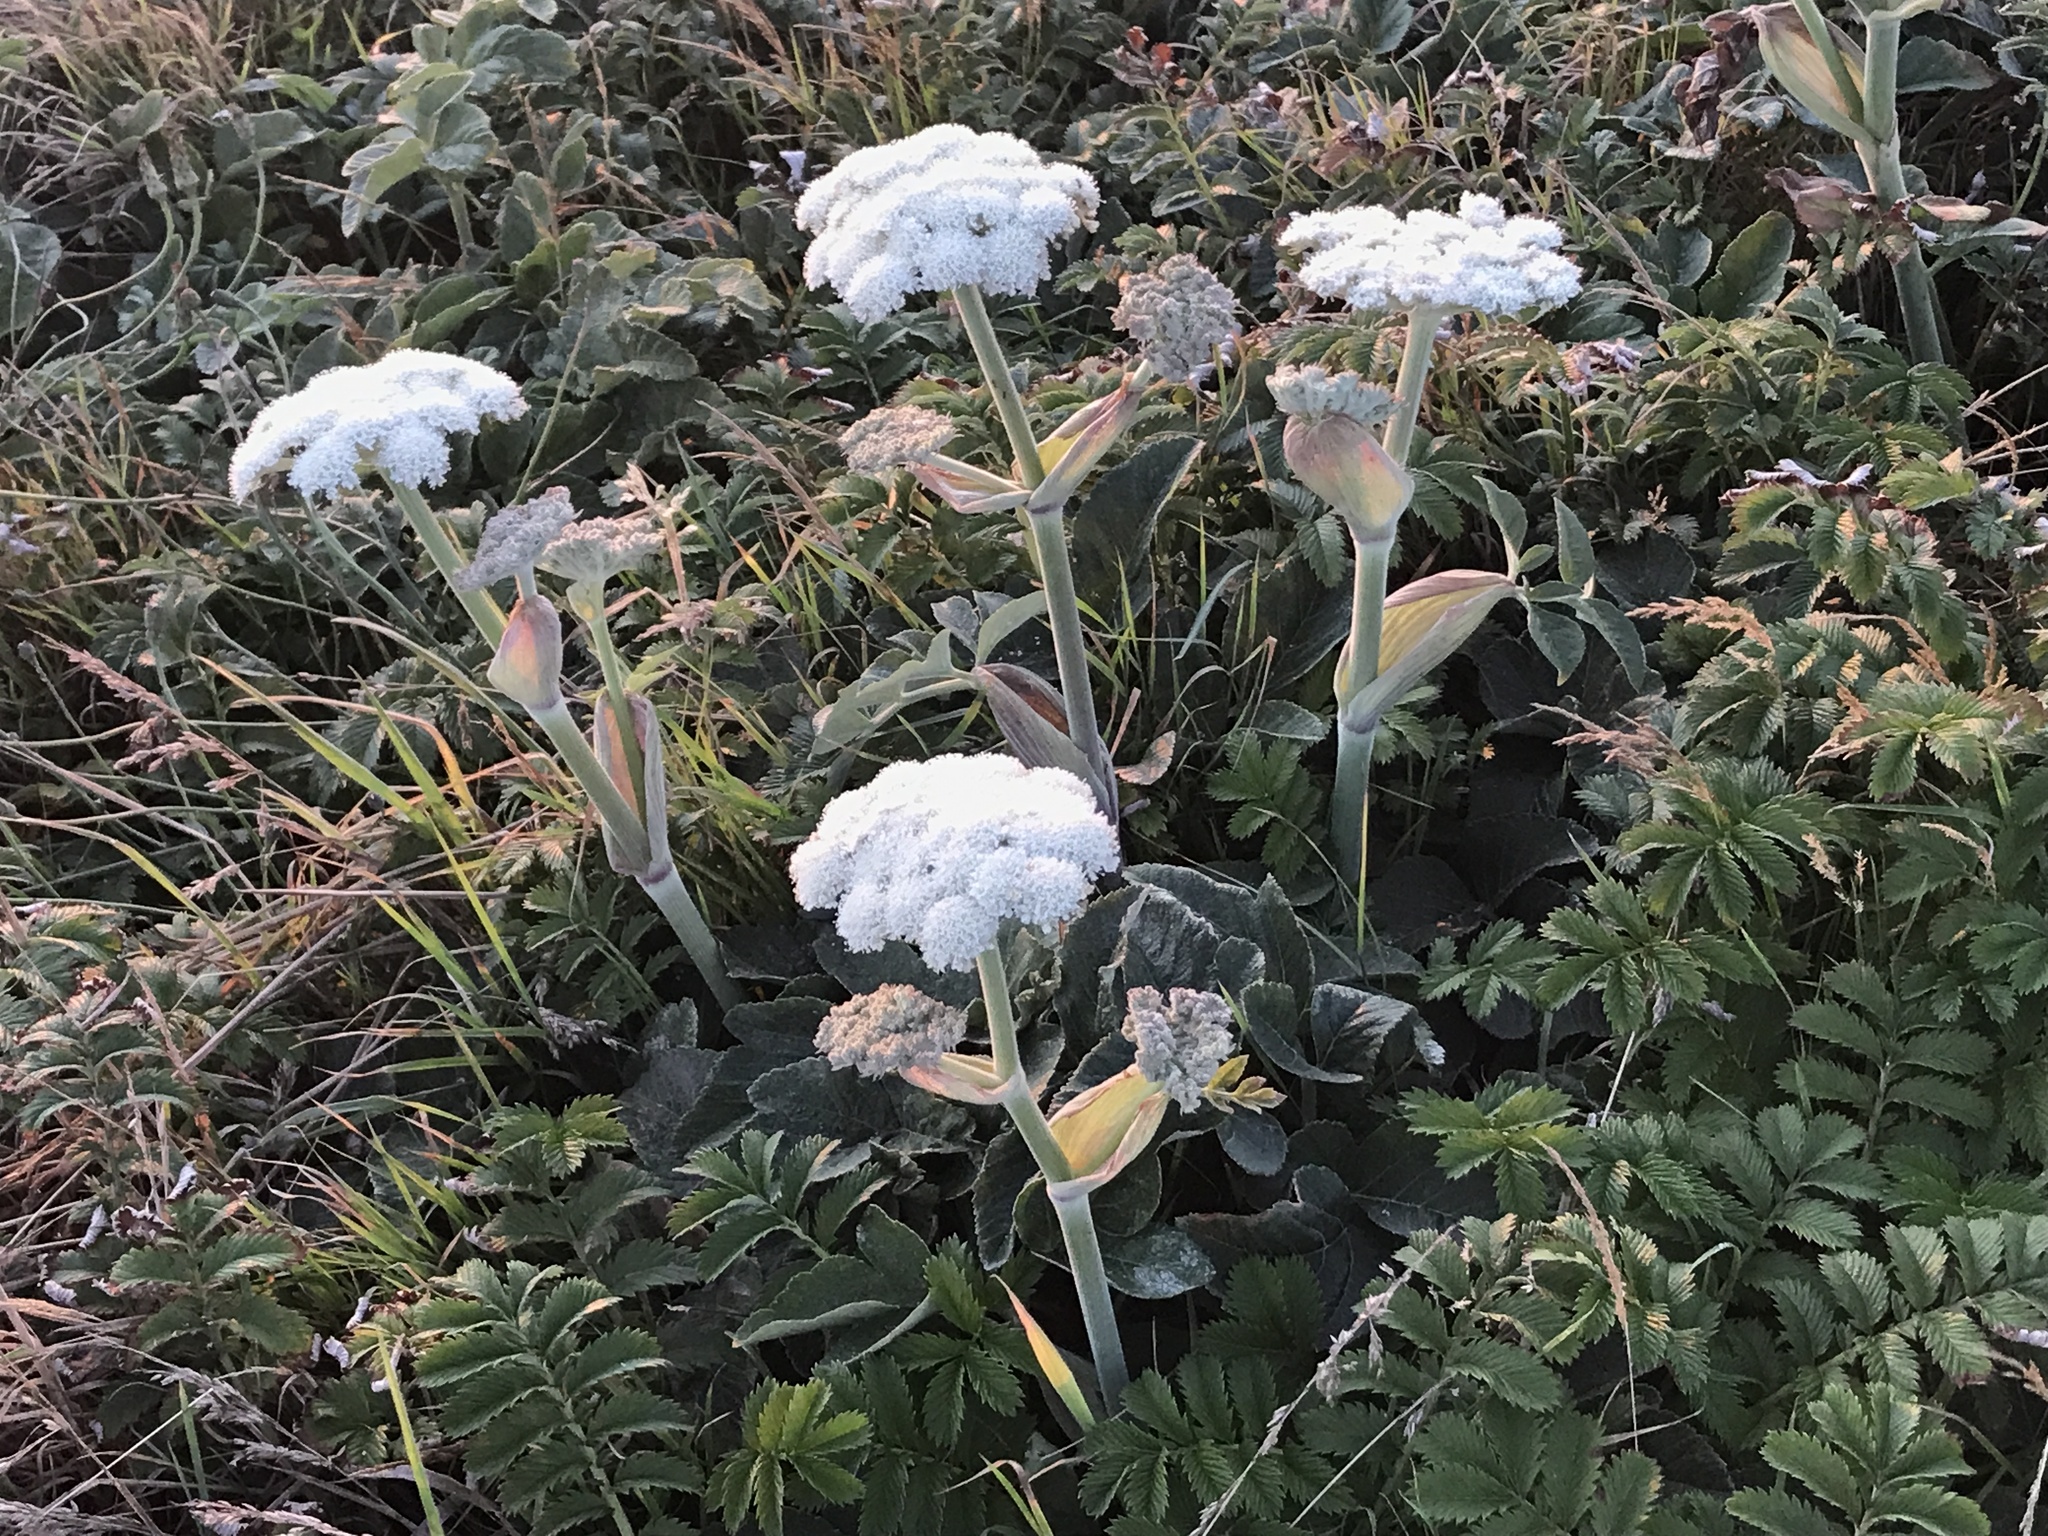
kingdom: Plantae
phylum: Tracheophyta
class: Magnoliopsida
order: Apiales
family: Apiaceae
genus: Angelica
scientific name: Angelica hendersonii
